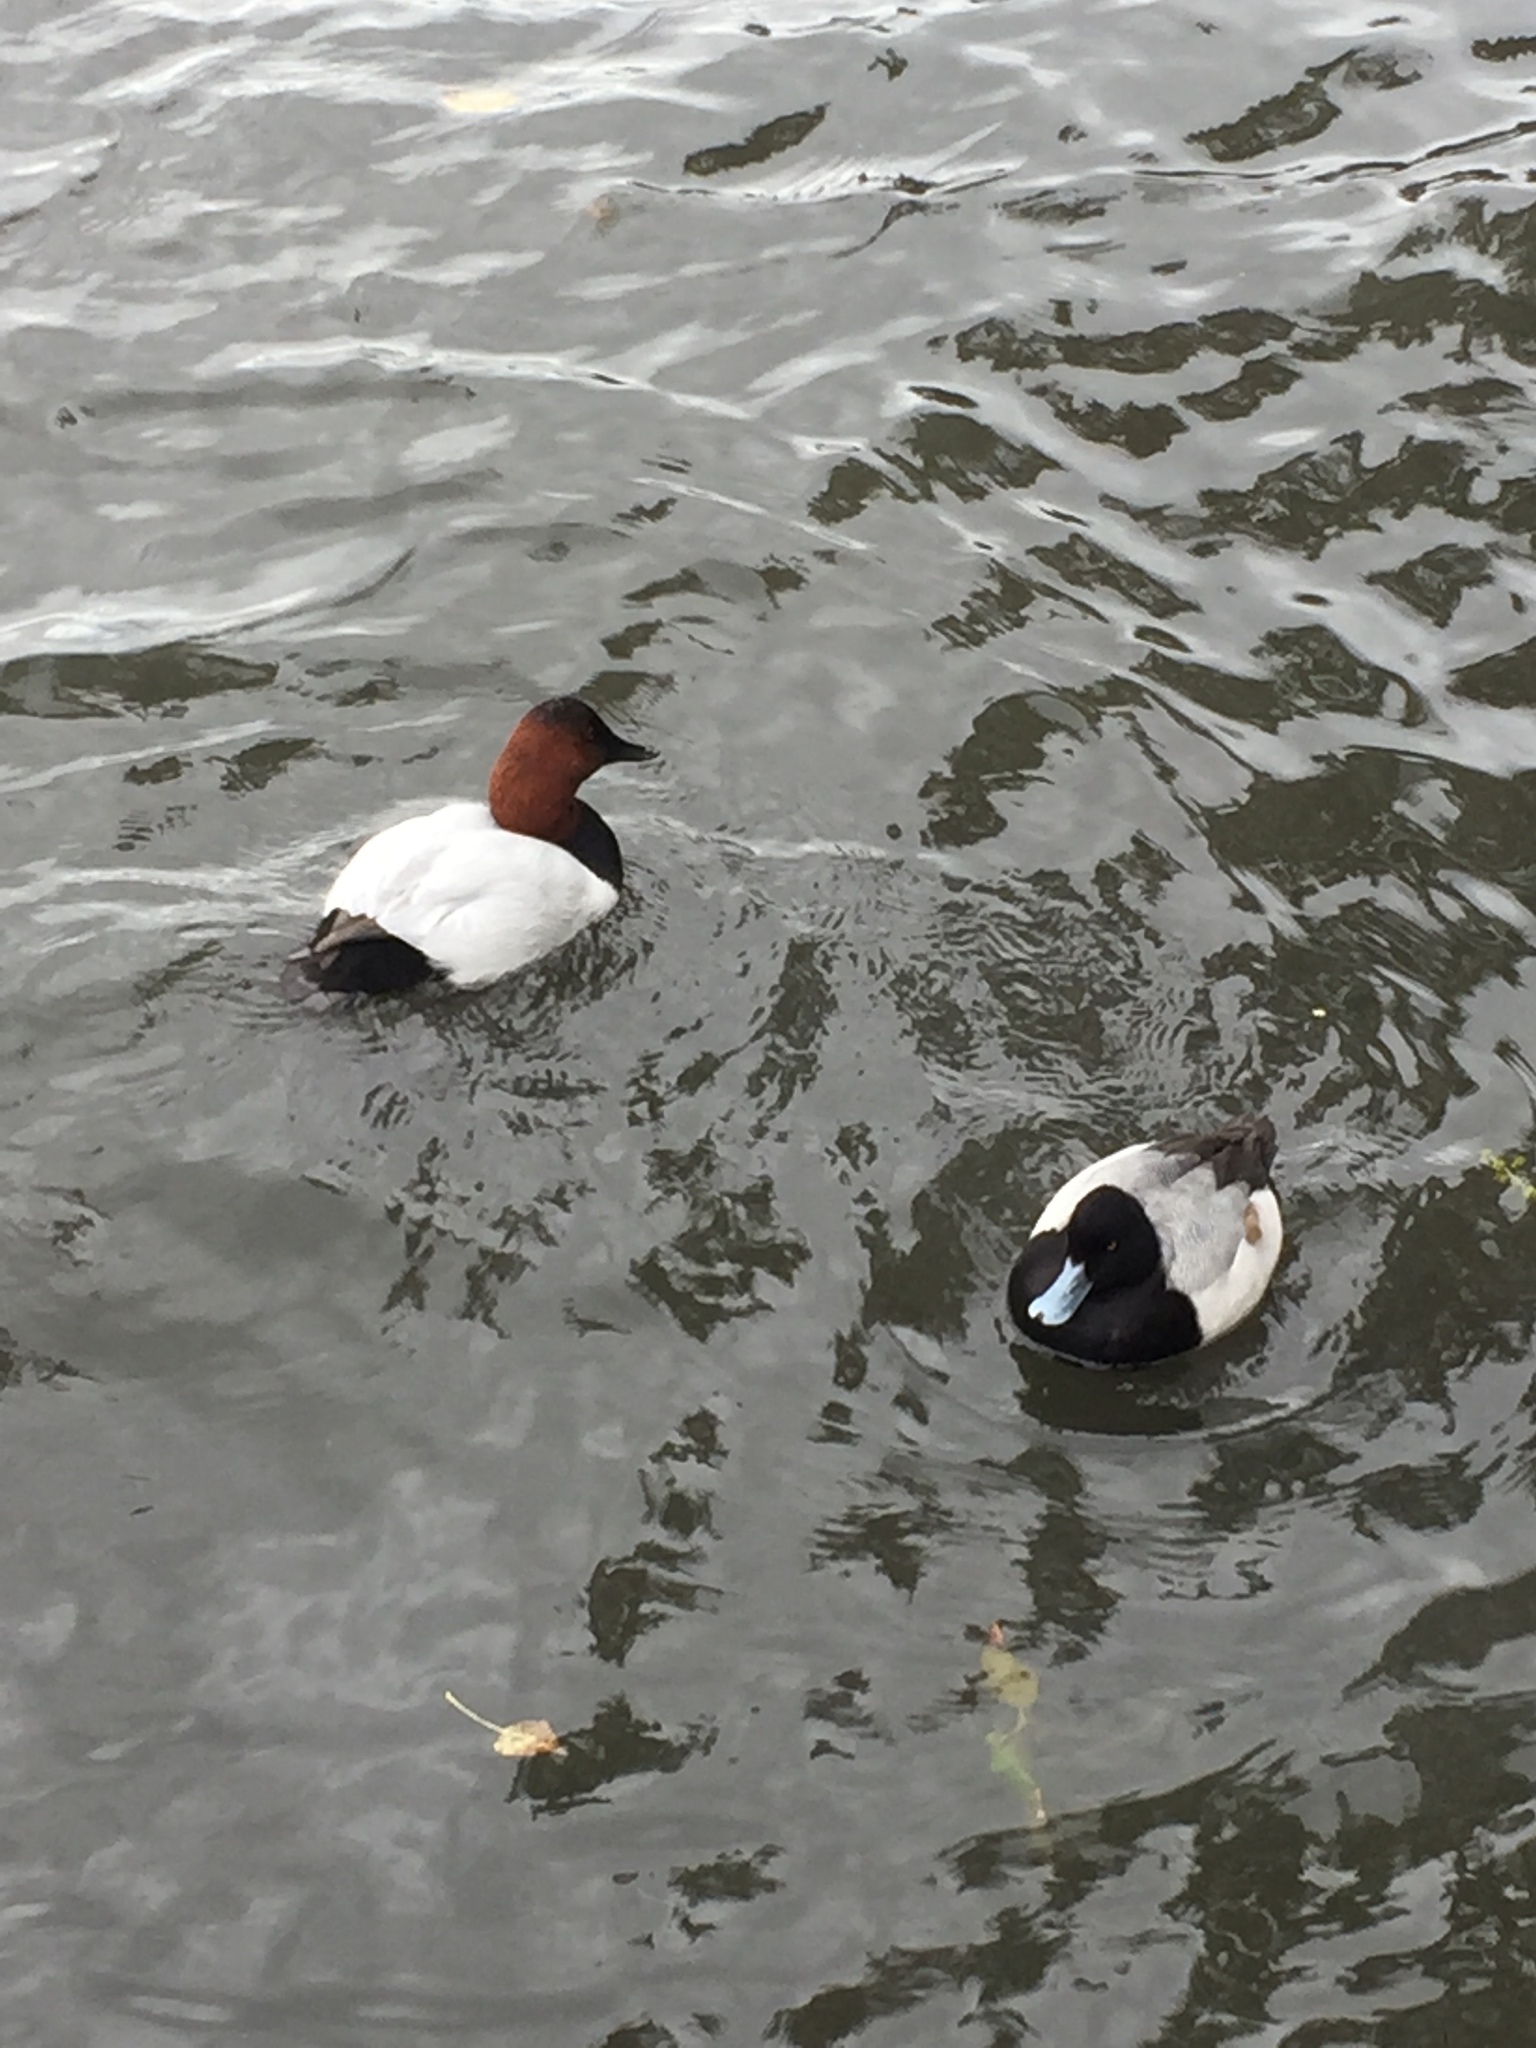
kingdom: Animalia
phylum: Chordata
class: Aves
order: Anseriformes
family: Anatidae
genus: Aythya
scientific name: Aythya valisineria
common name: Canvasback
